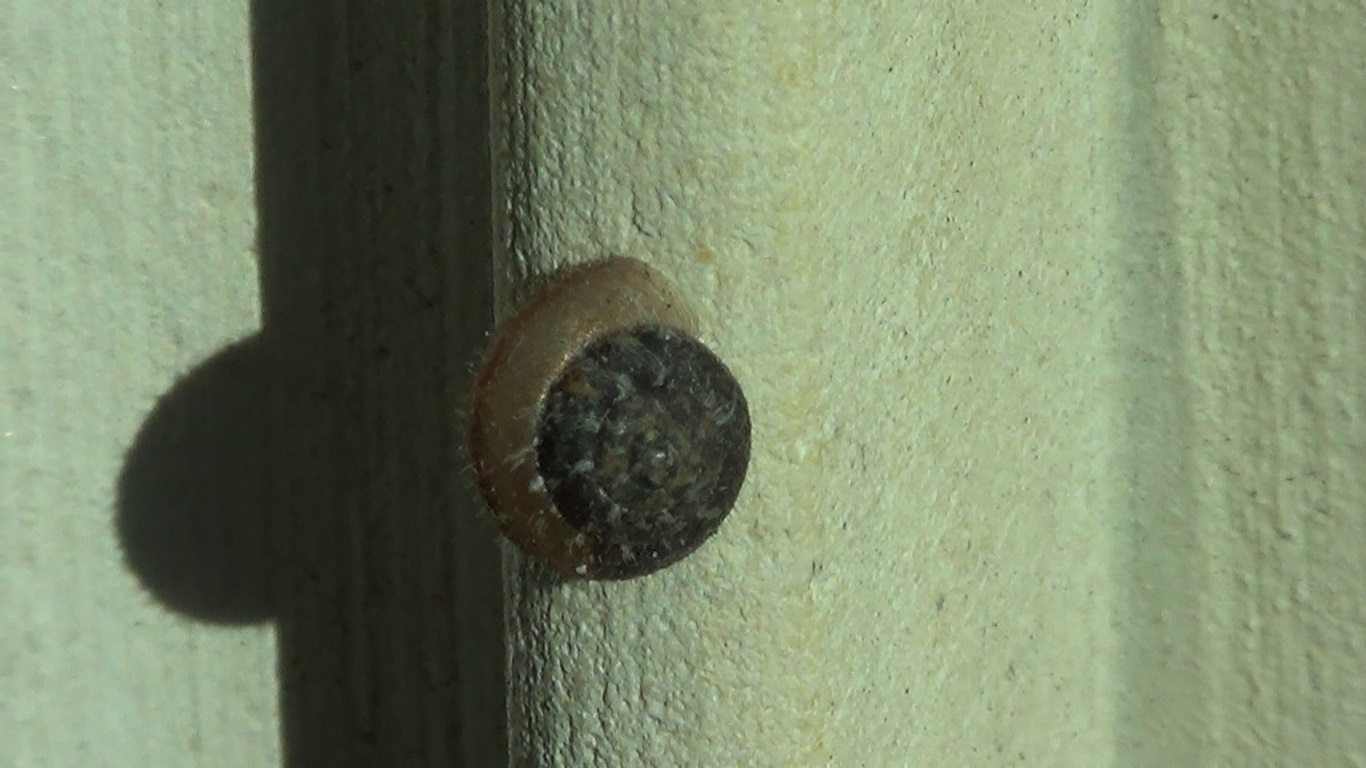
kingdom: Animalia
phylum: Mollusca
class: Gastropoda
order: Stylommatophora
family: Geomitridae
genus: Xerotricha
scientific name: Xerotricha conspurcata
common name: Snail
